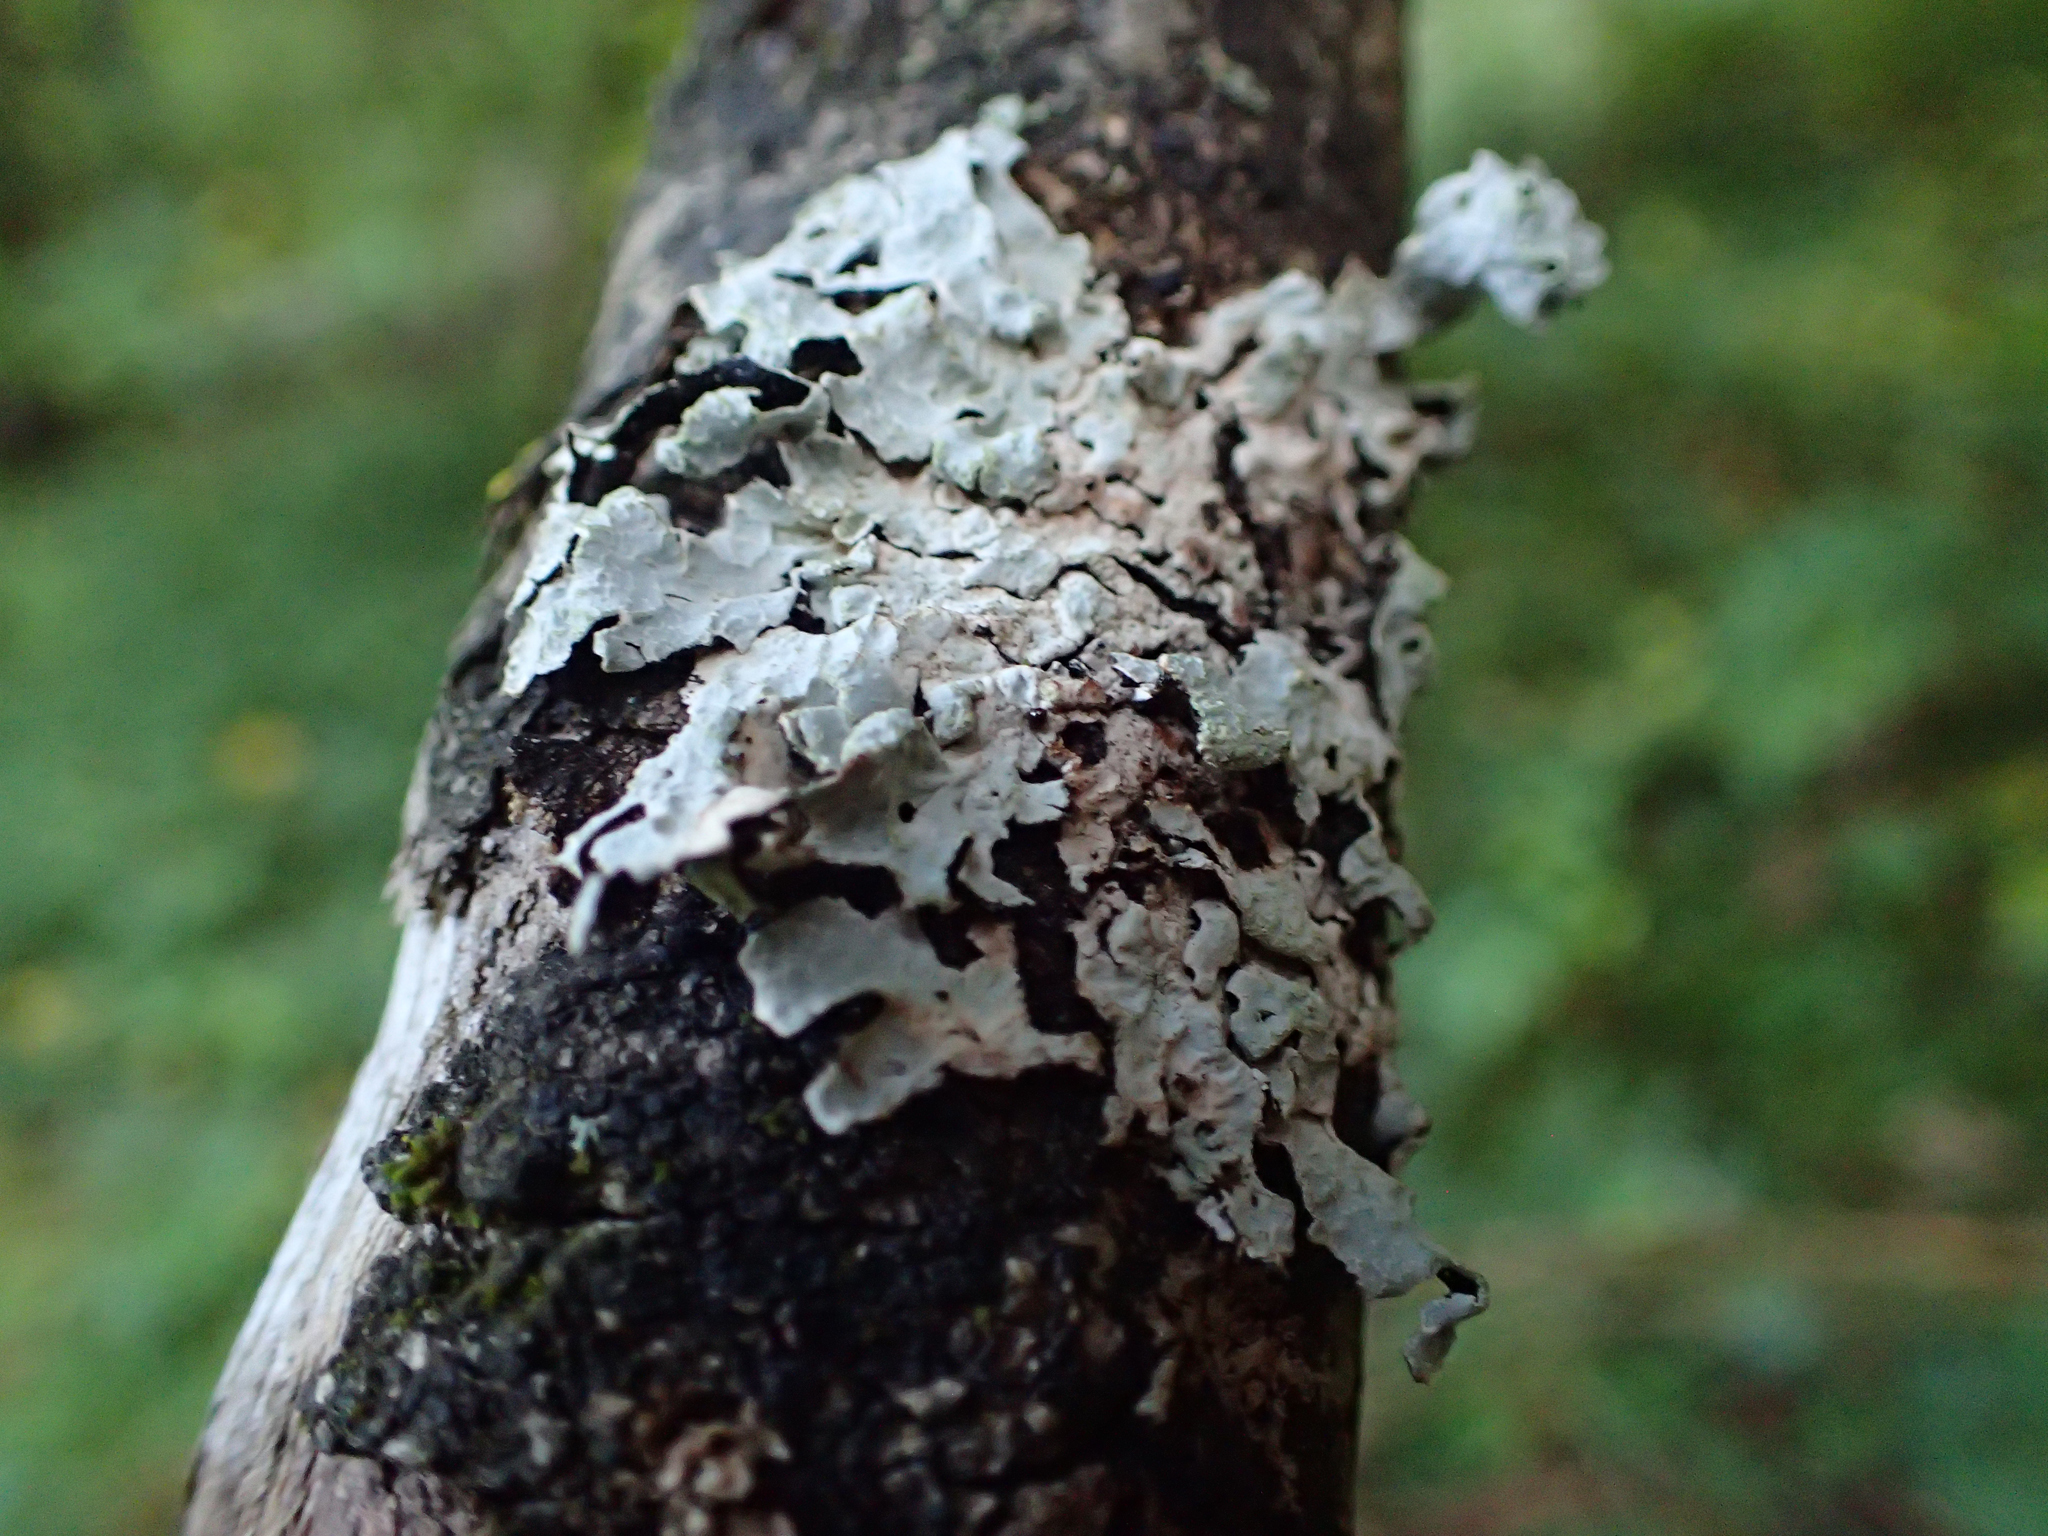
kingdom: Fungi
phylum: Ascomycota
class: Lecanoromycetes
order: Lecanorales
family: Parmeliaceae
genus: Parmelia
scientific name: Parmelia sulcata
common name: Netted shield lichen
